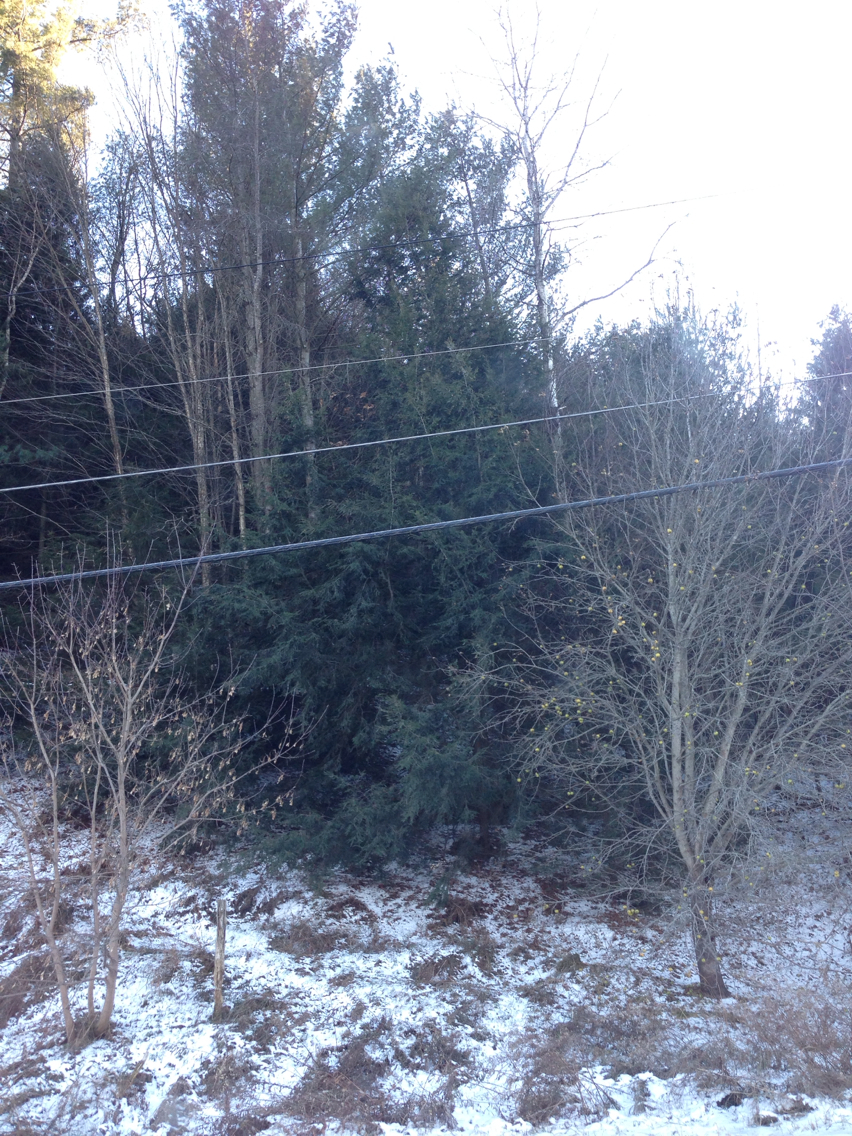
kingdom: Plantae
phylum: Tracheophyta
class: Pinopsida
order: Pinales
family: Pinaceae
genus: Tsuga
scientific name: Tsuga canadensis
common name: Eastern hemlock
